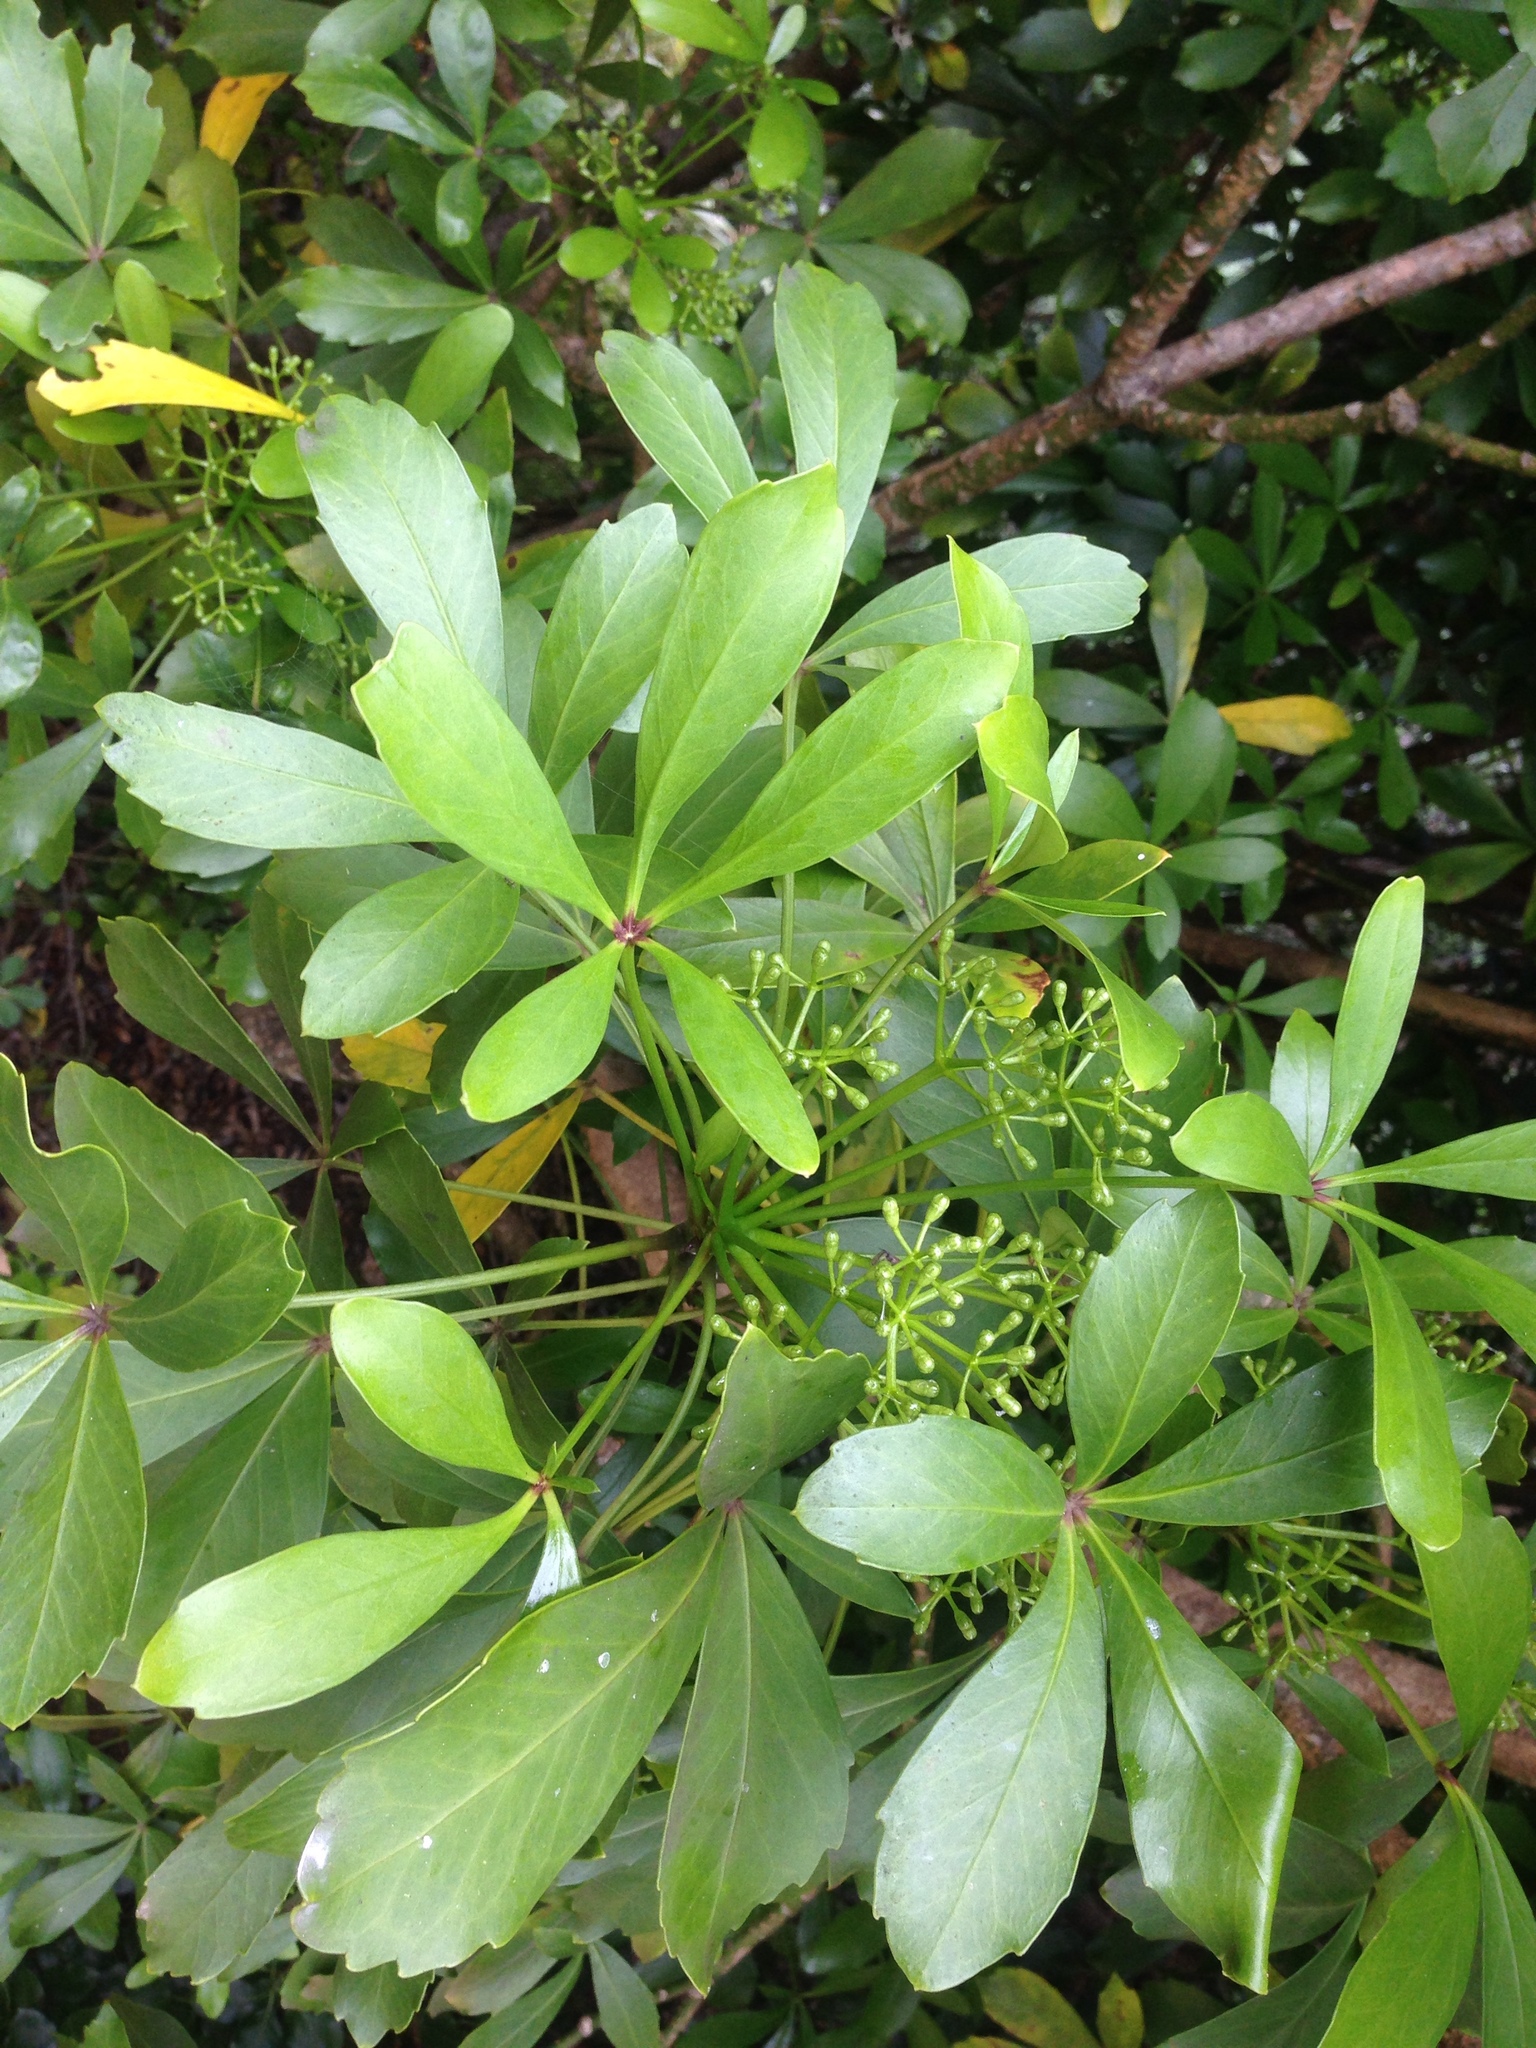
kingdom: Plantae
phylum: Tracheophyta
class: Magnoliopsida
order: Apiales
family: Araliaceae
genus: Pseudopanax
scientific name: Pseudopanax lessonii
